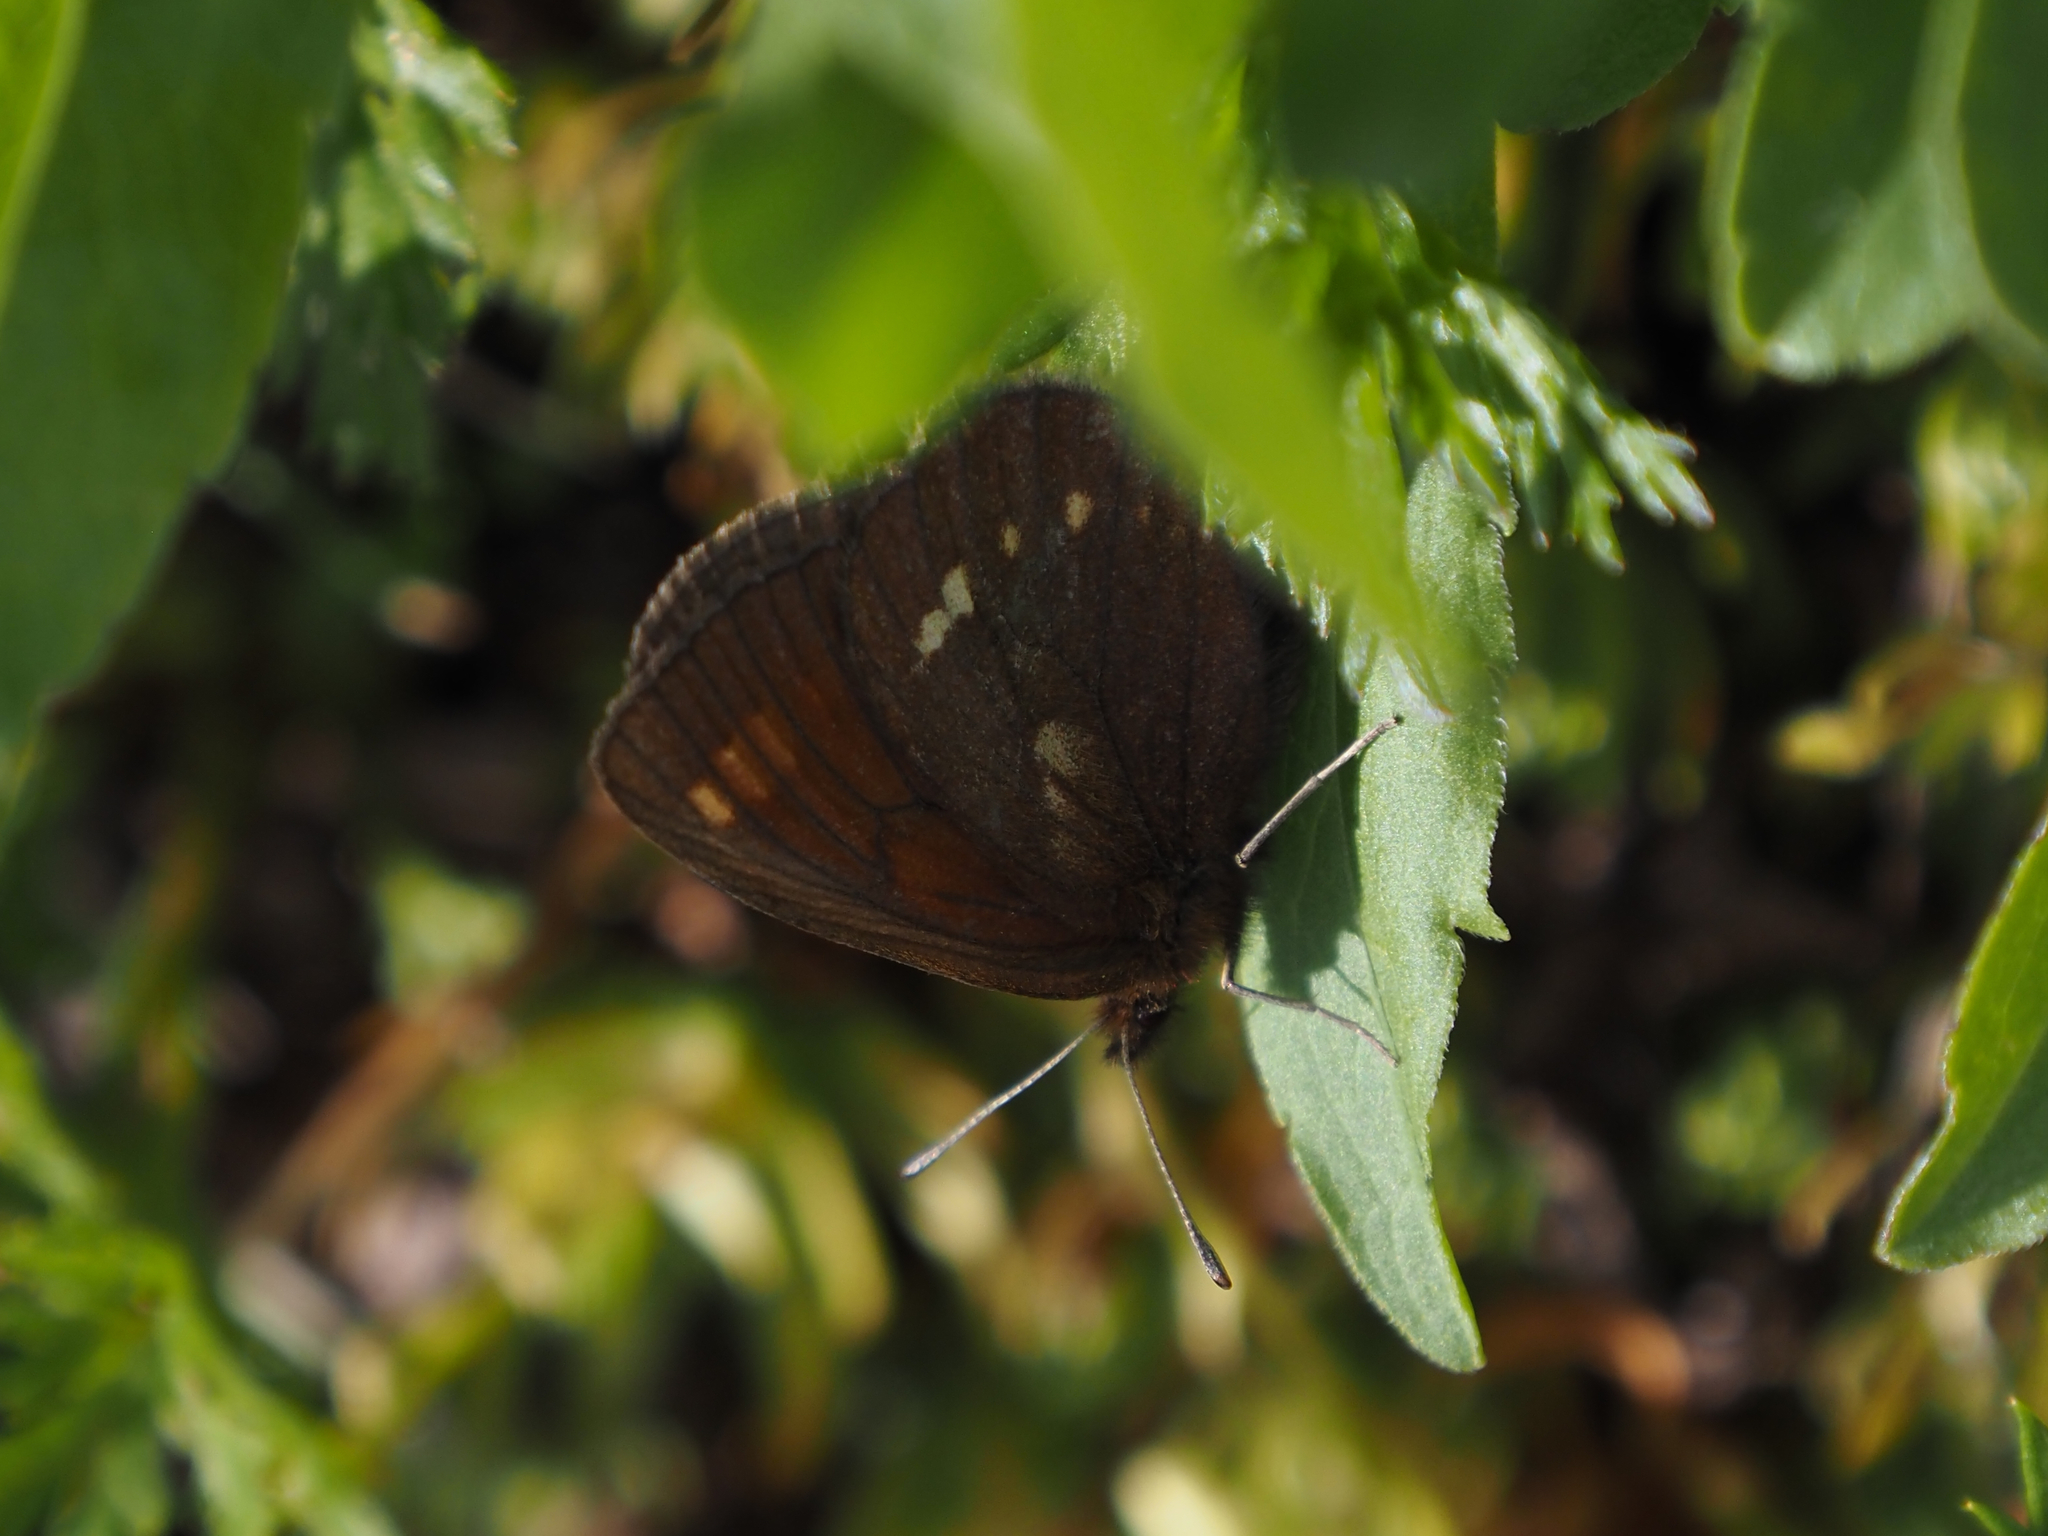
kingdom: Animalia
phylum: Arthropoda
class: Insecta
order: Lepidoptera
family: Nymphalidae
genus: Erebia
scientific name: Erebia pawloskii
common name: Theano alpine
